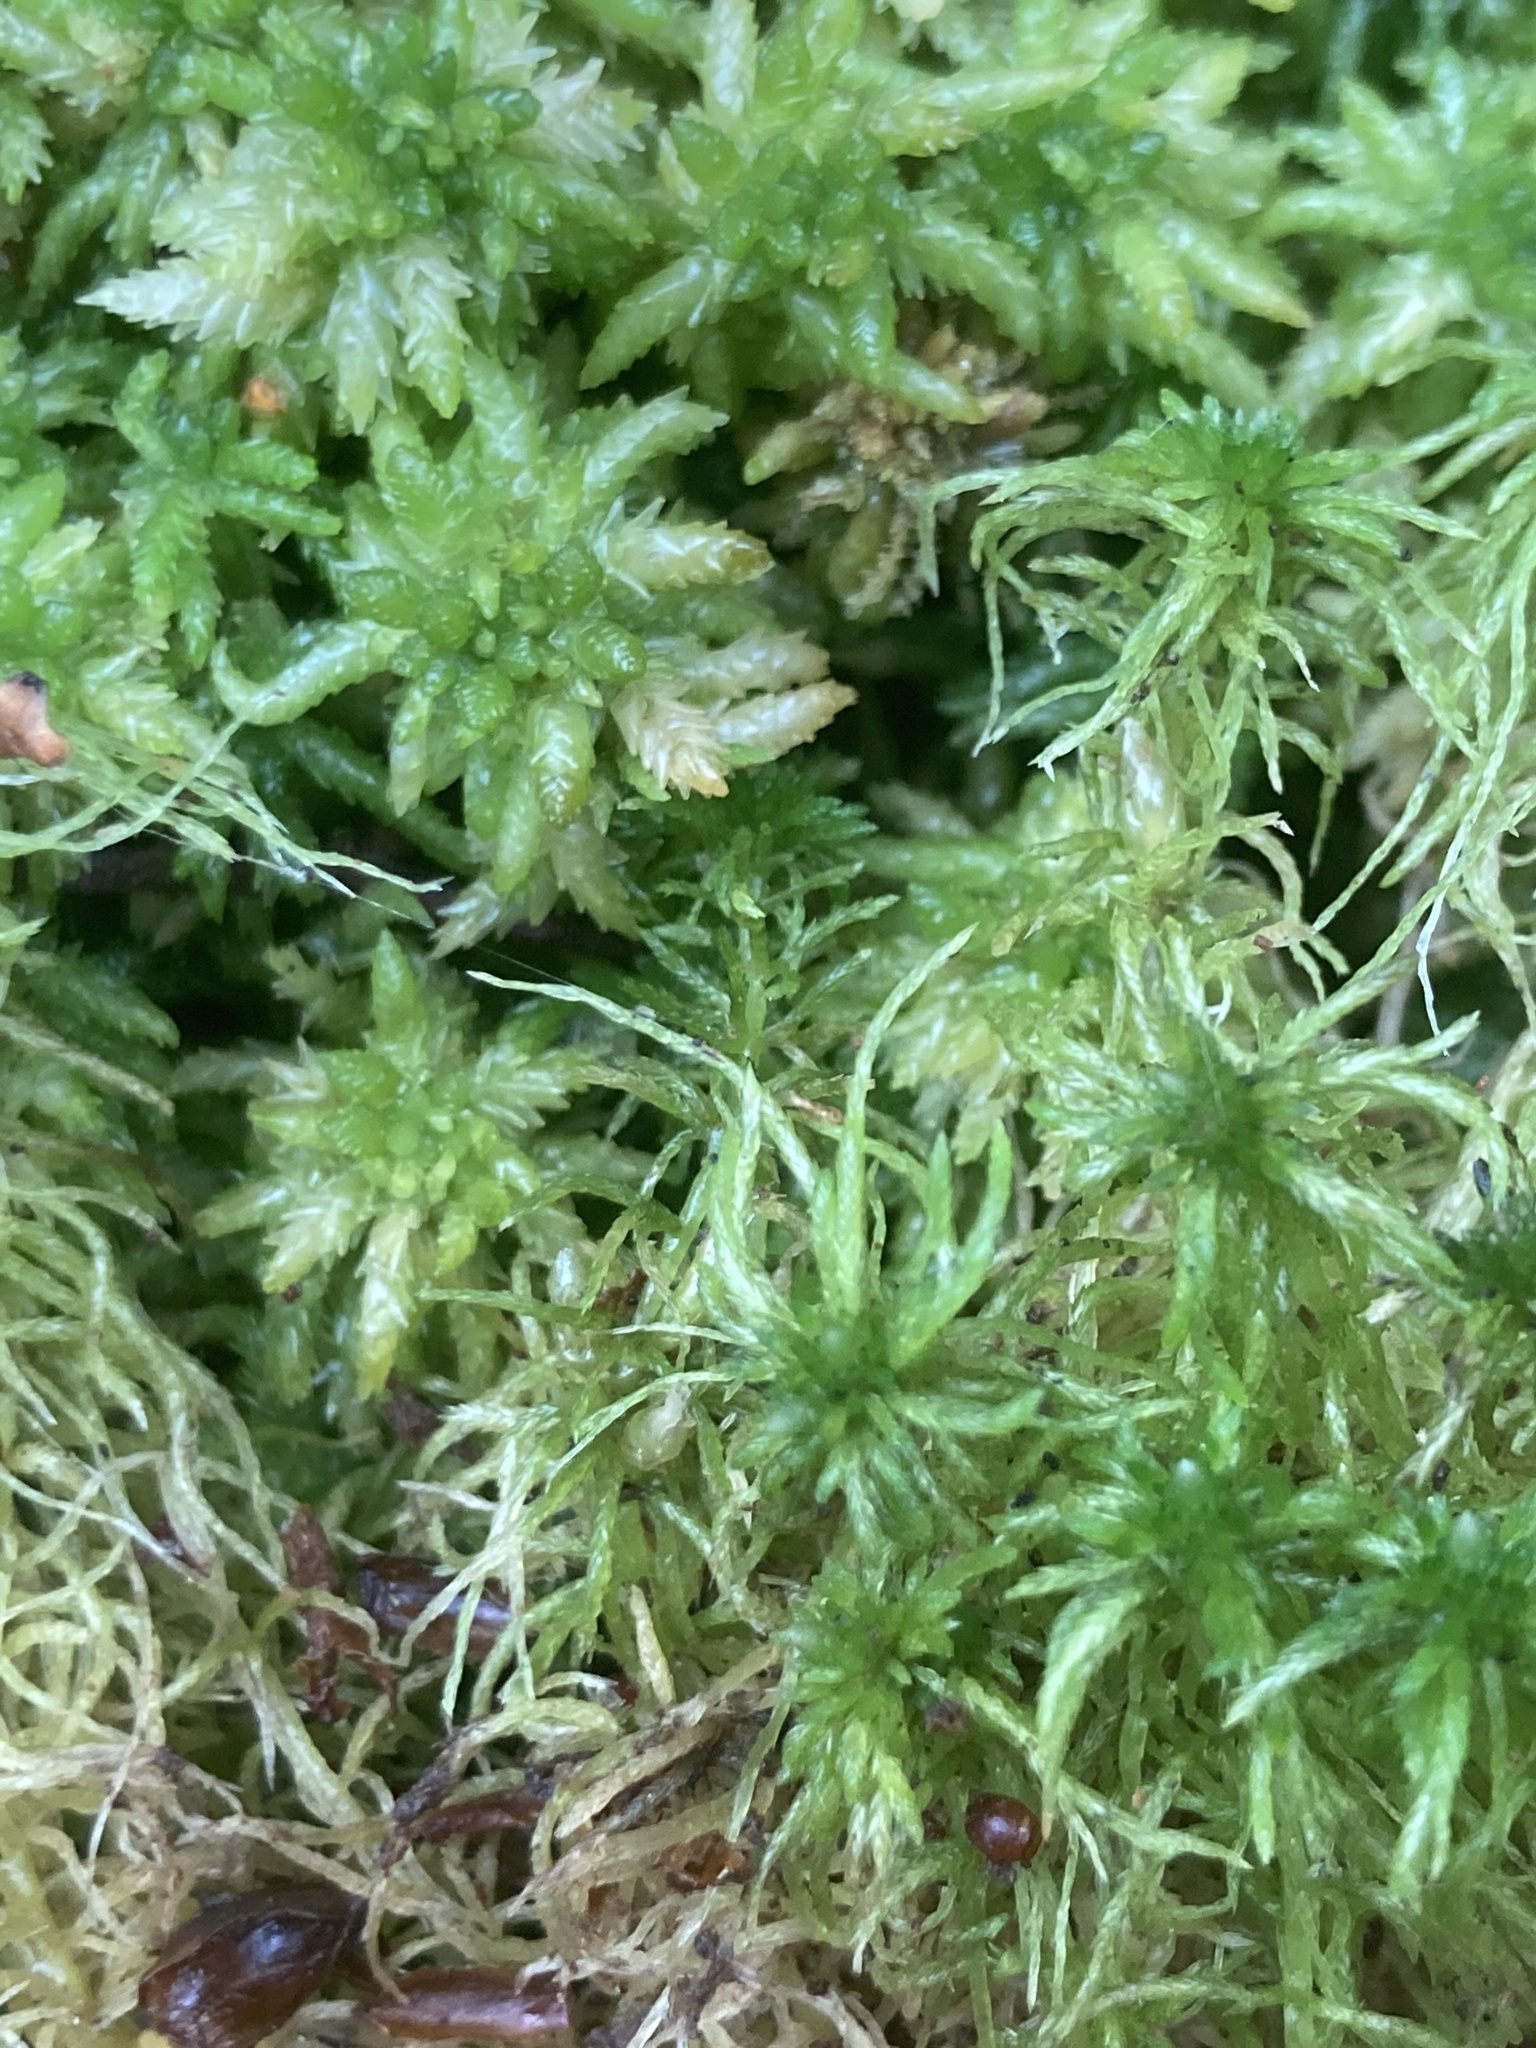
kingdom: Plantae
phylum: Bryophyta
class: Sphagnopsida
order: Sphagnales
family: Sphagnaceae
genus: Sphagnum
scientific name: Sphagnum fimbriatum
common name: Fringed peat moss
